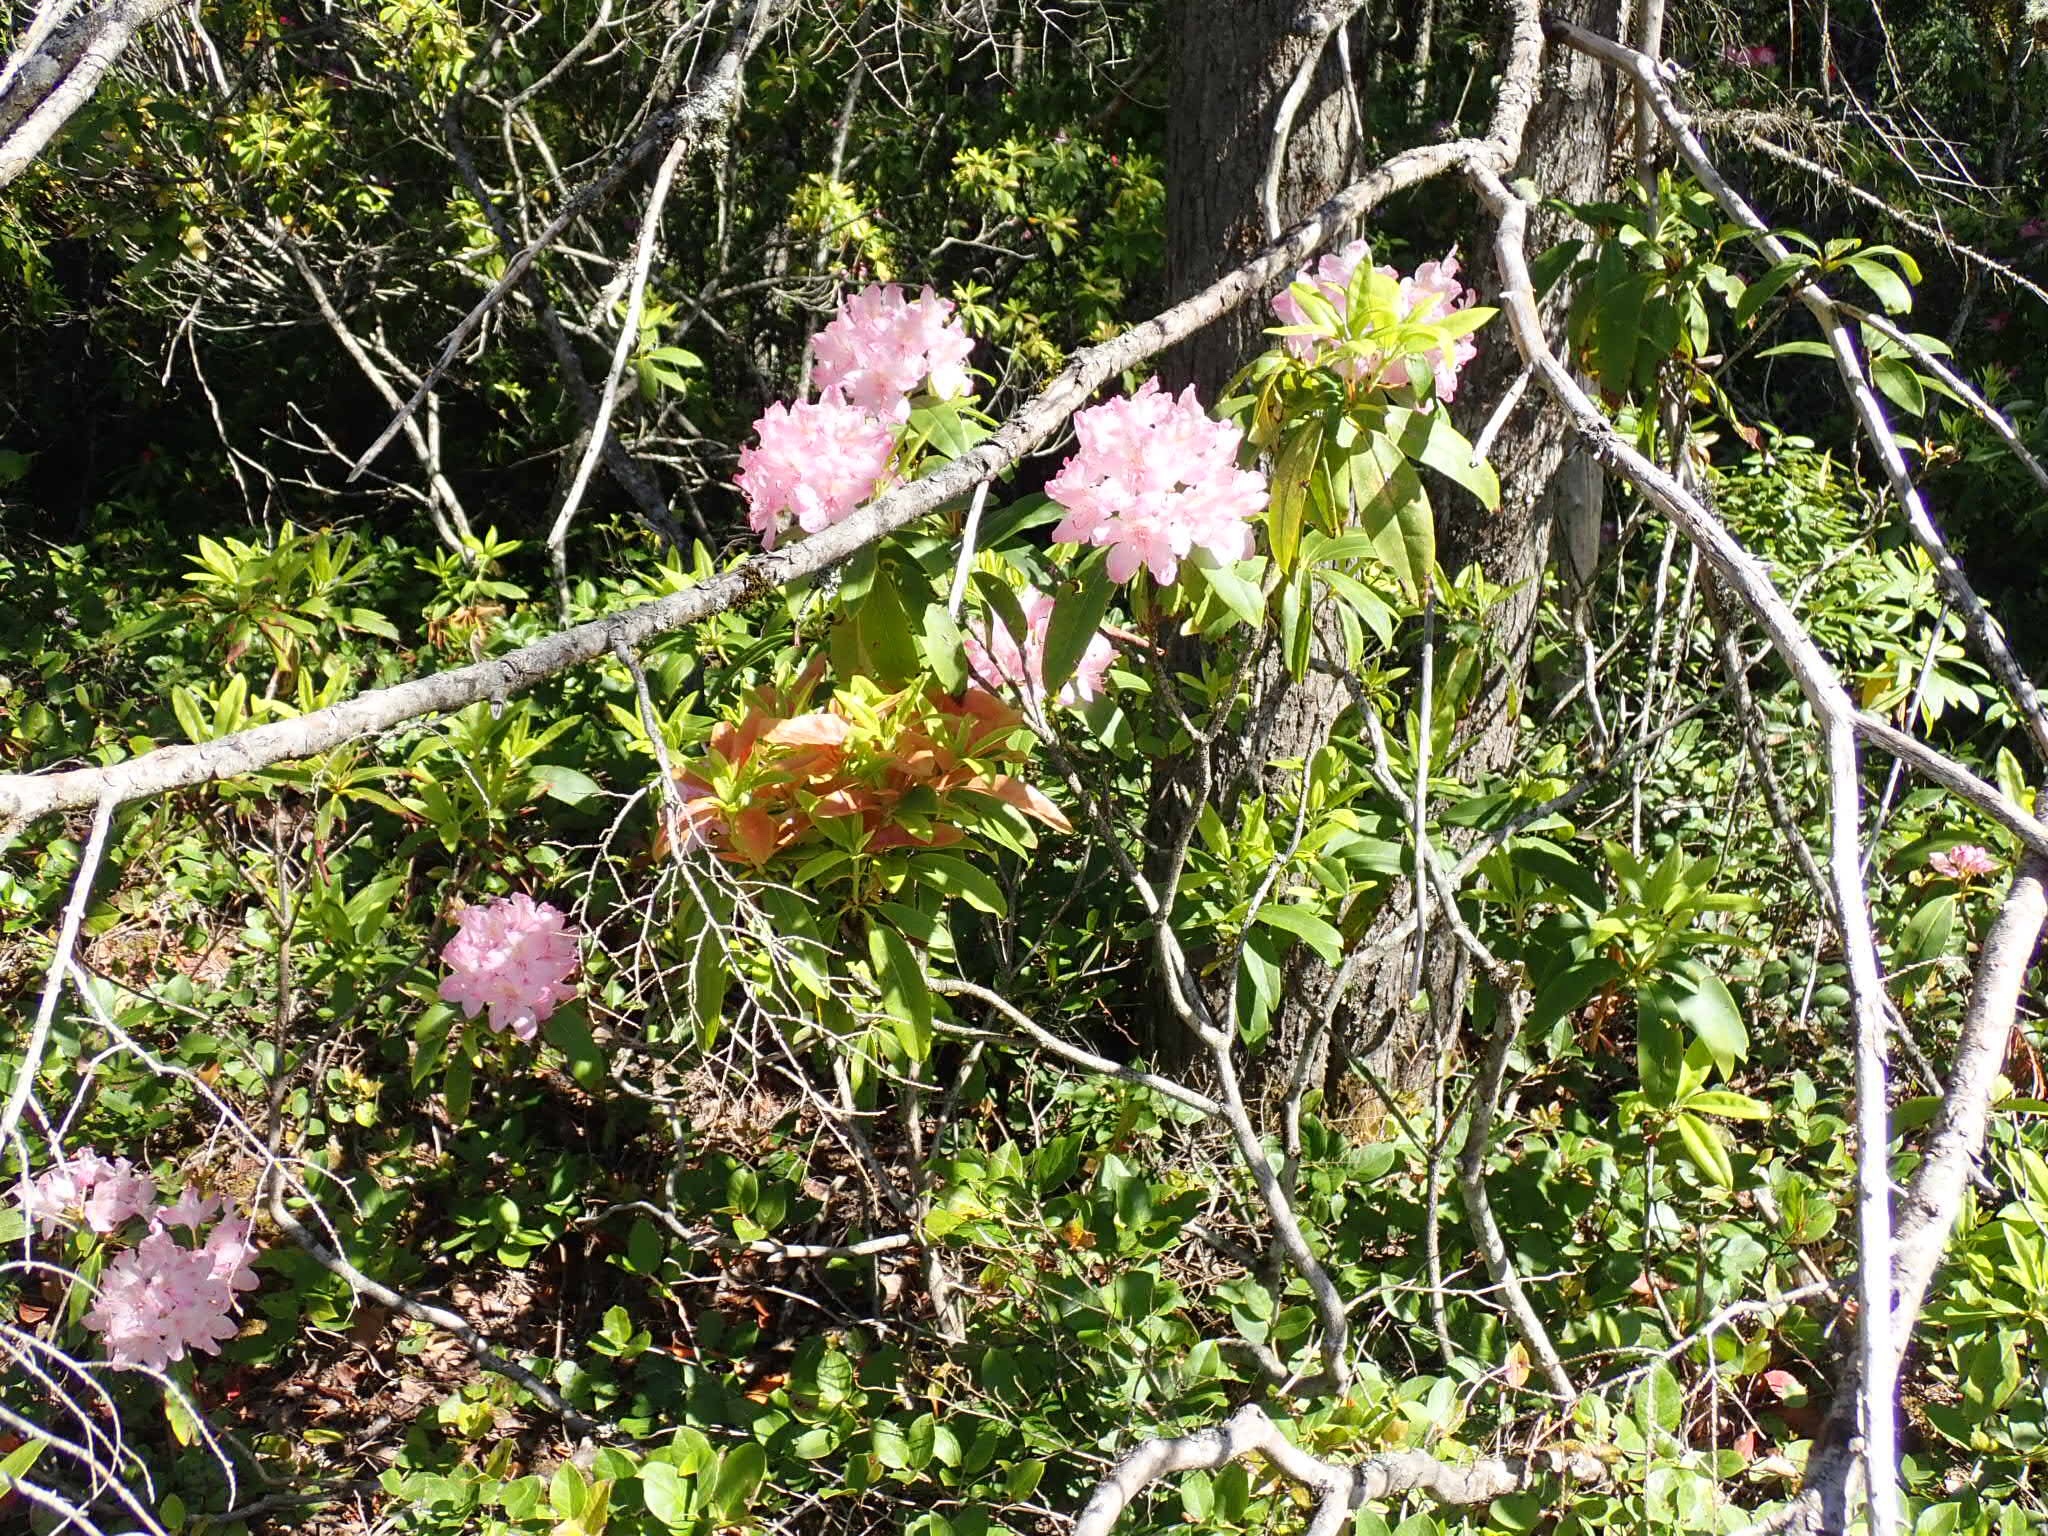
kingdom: Plantae
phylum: Tracheophyta
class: Magnoliopsida
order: Ericales
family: Ericaceae
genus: Rhododendron
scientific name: Rhododendron macrophyllum
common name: California rose bay
